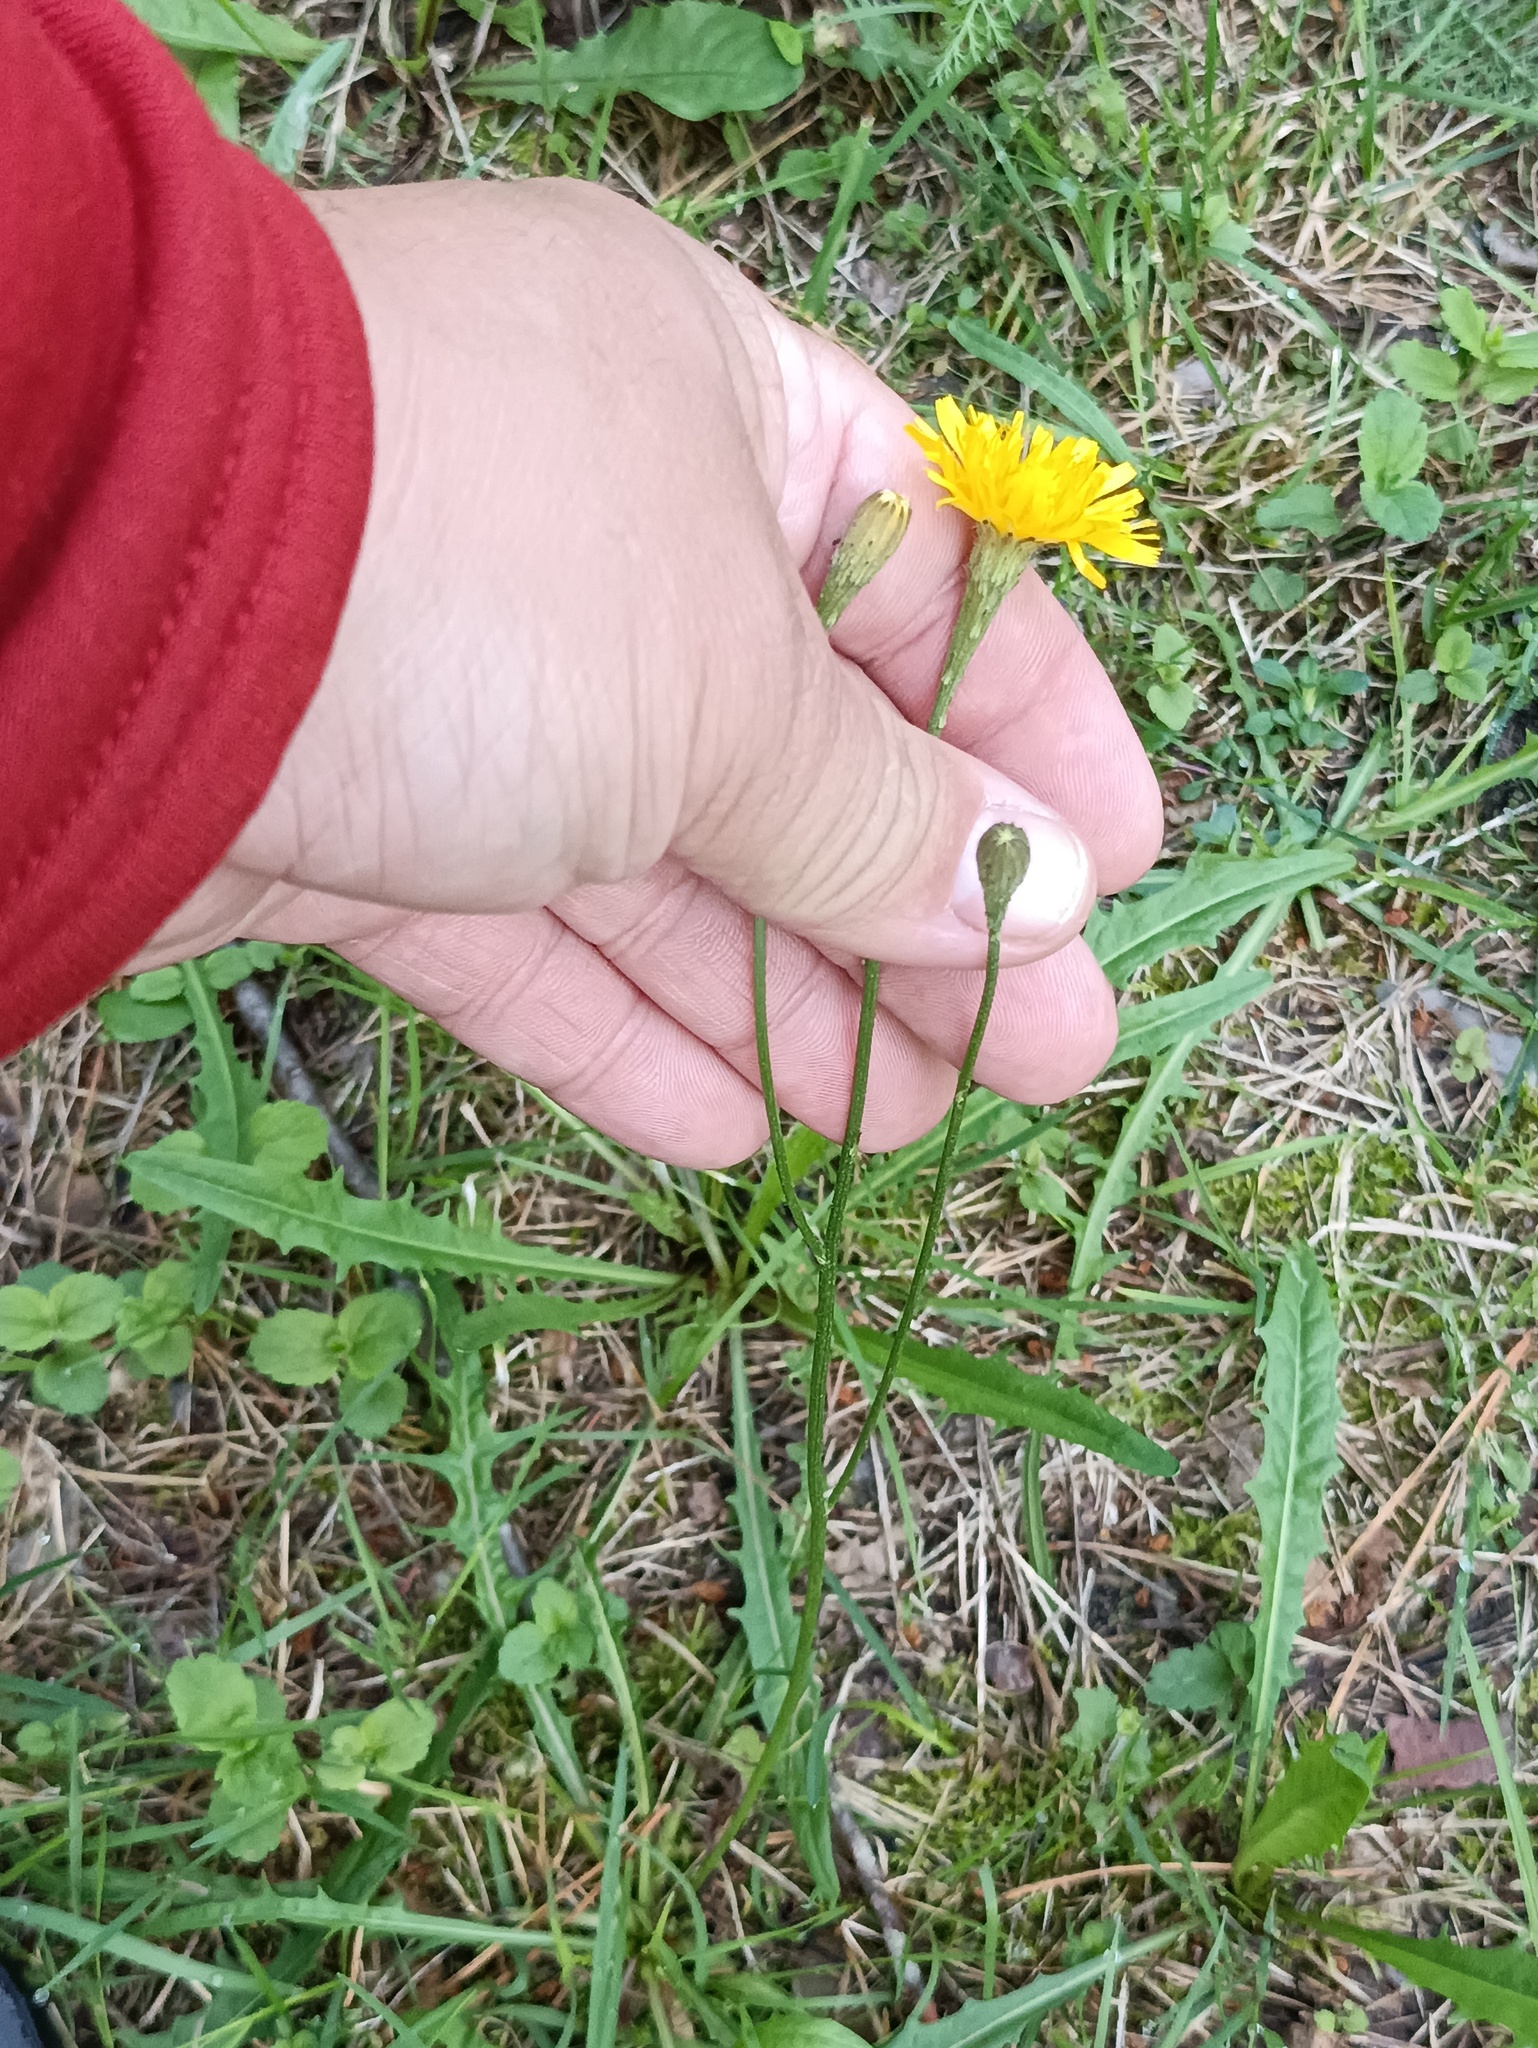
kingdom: Plantae
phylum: Tracheophyta
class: Magnoliopsida
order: Asterales
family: Asteraceae
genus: Scorzoneroides
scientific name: Scorzoneroides autumnalis
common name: Autumn hawkbit
